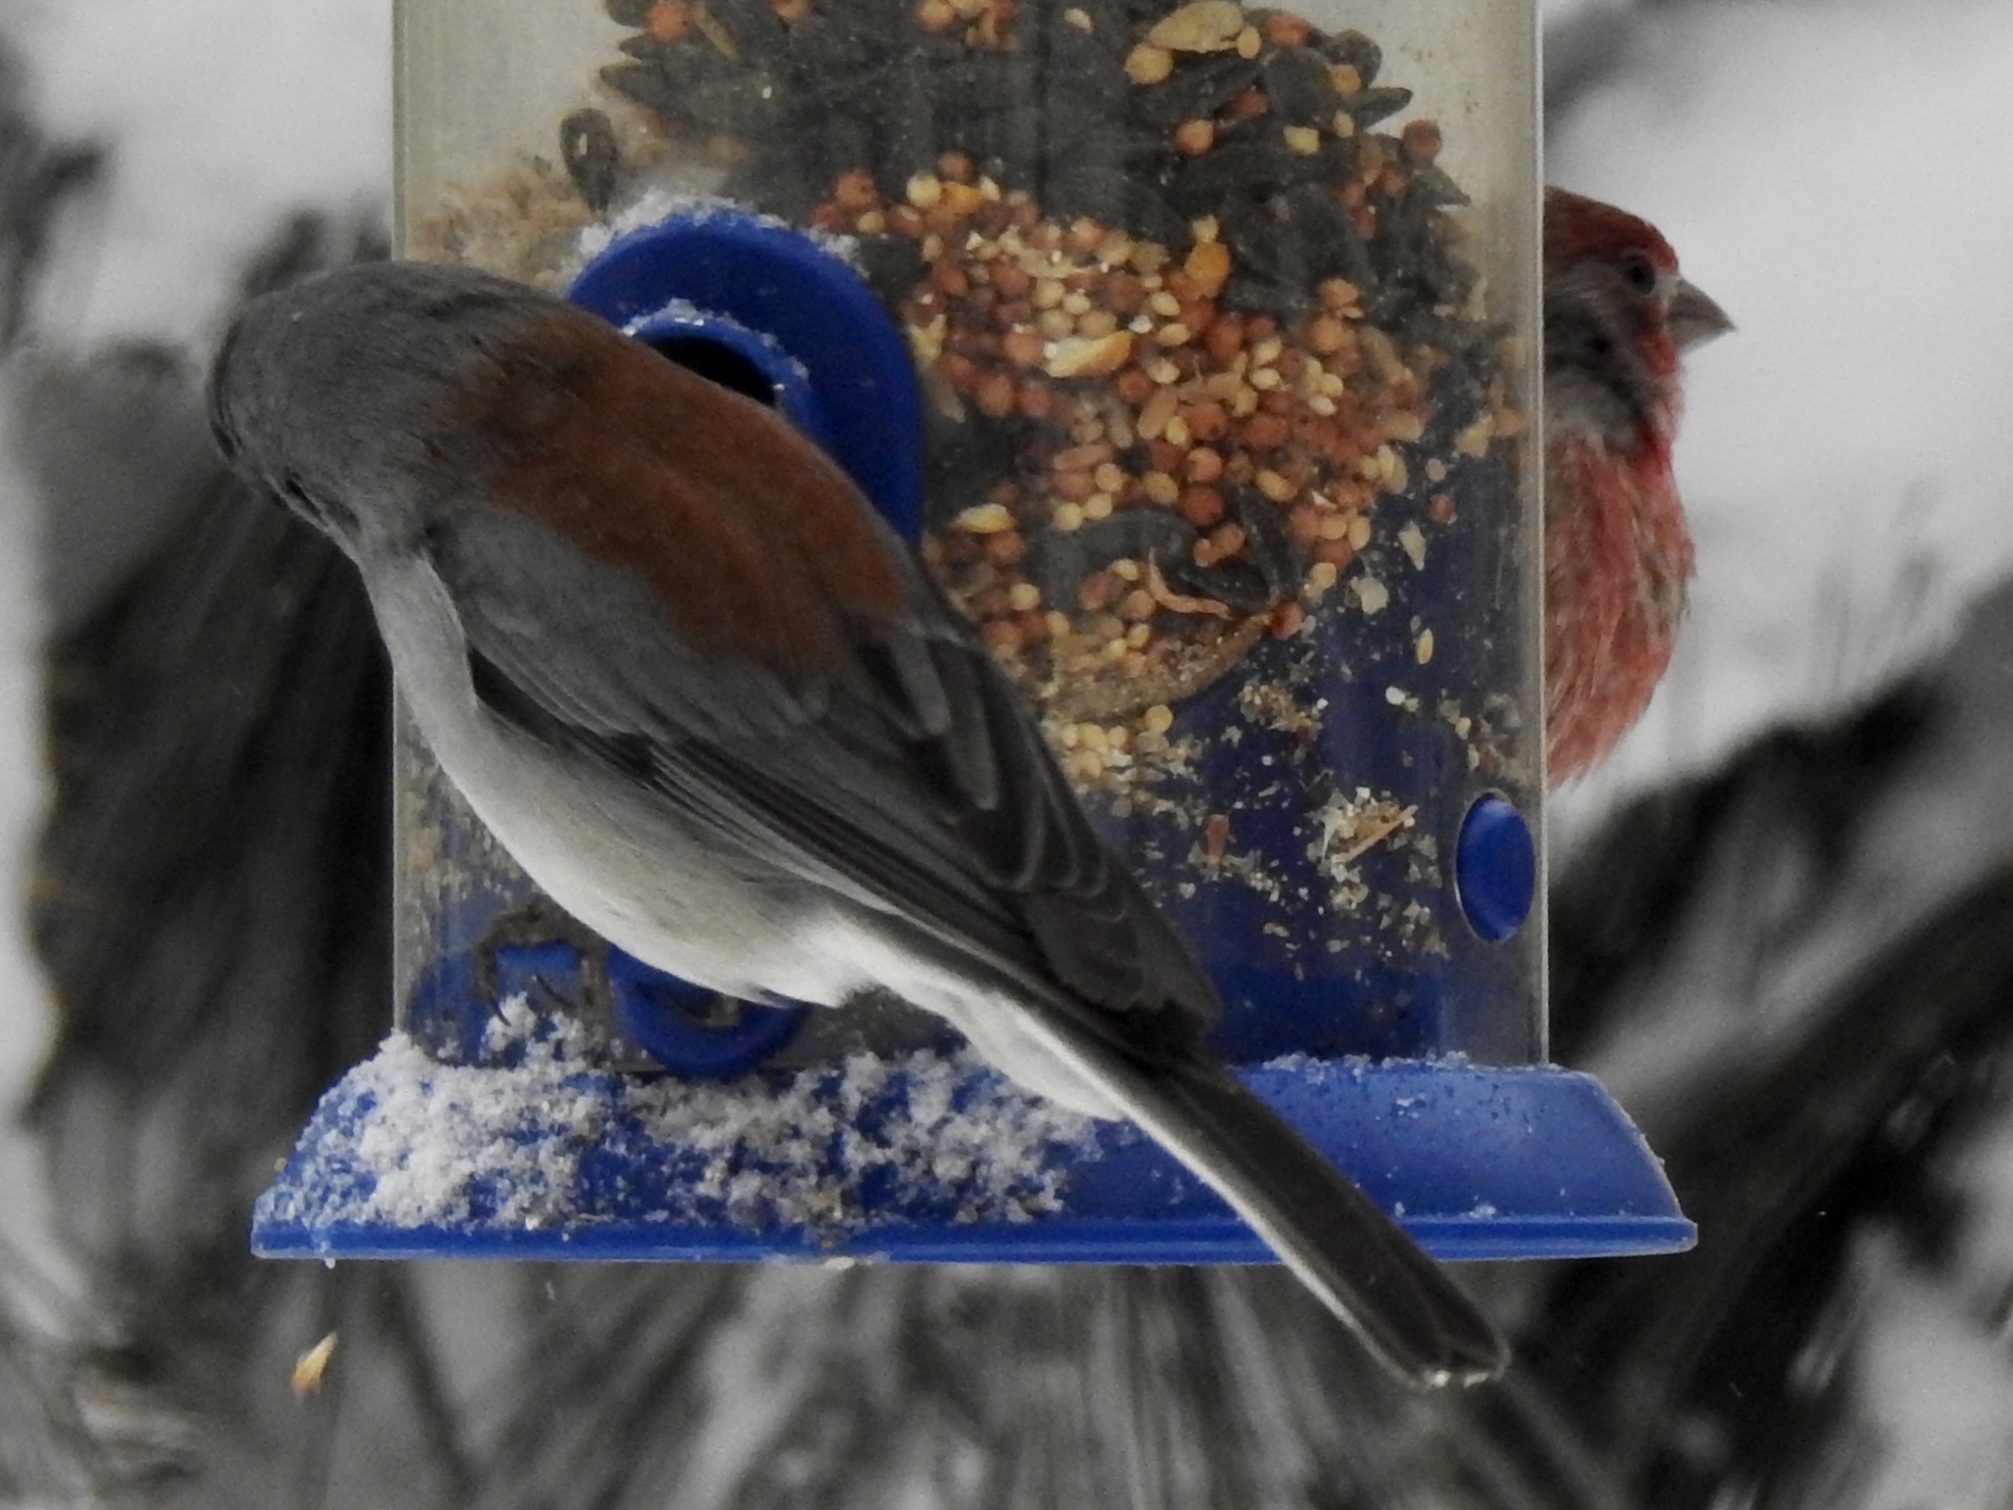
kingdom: Animalia
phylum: Chordata
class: Aves
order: Passeriformes
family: Passerellidae
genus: Junco
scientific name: Junco hyemalis
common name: Dark-eyed junco
